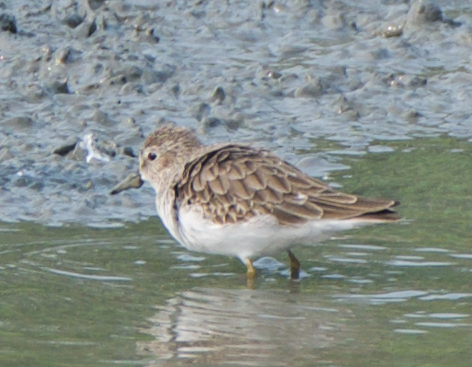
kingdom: Animalia
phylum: Chordata
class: Aves
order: Charadriiformes
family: Scolopacidae
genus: Calidris
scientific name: Calidris minutilla
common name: Least sandpiper
